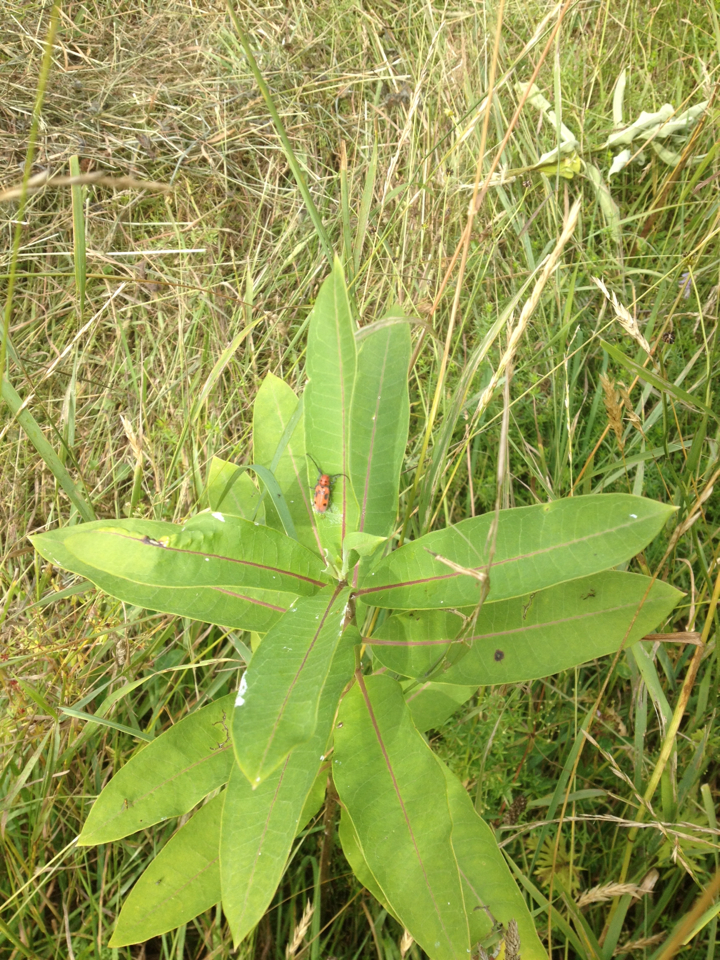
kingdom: Animalia
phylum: Arthropoda
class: Insecta
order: Coleoptera
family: Cerambycidae
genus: Tetraopes
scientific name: Tetraopes tetrophthalmus
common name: Red milkweed beetle
